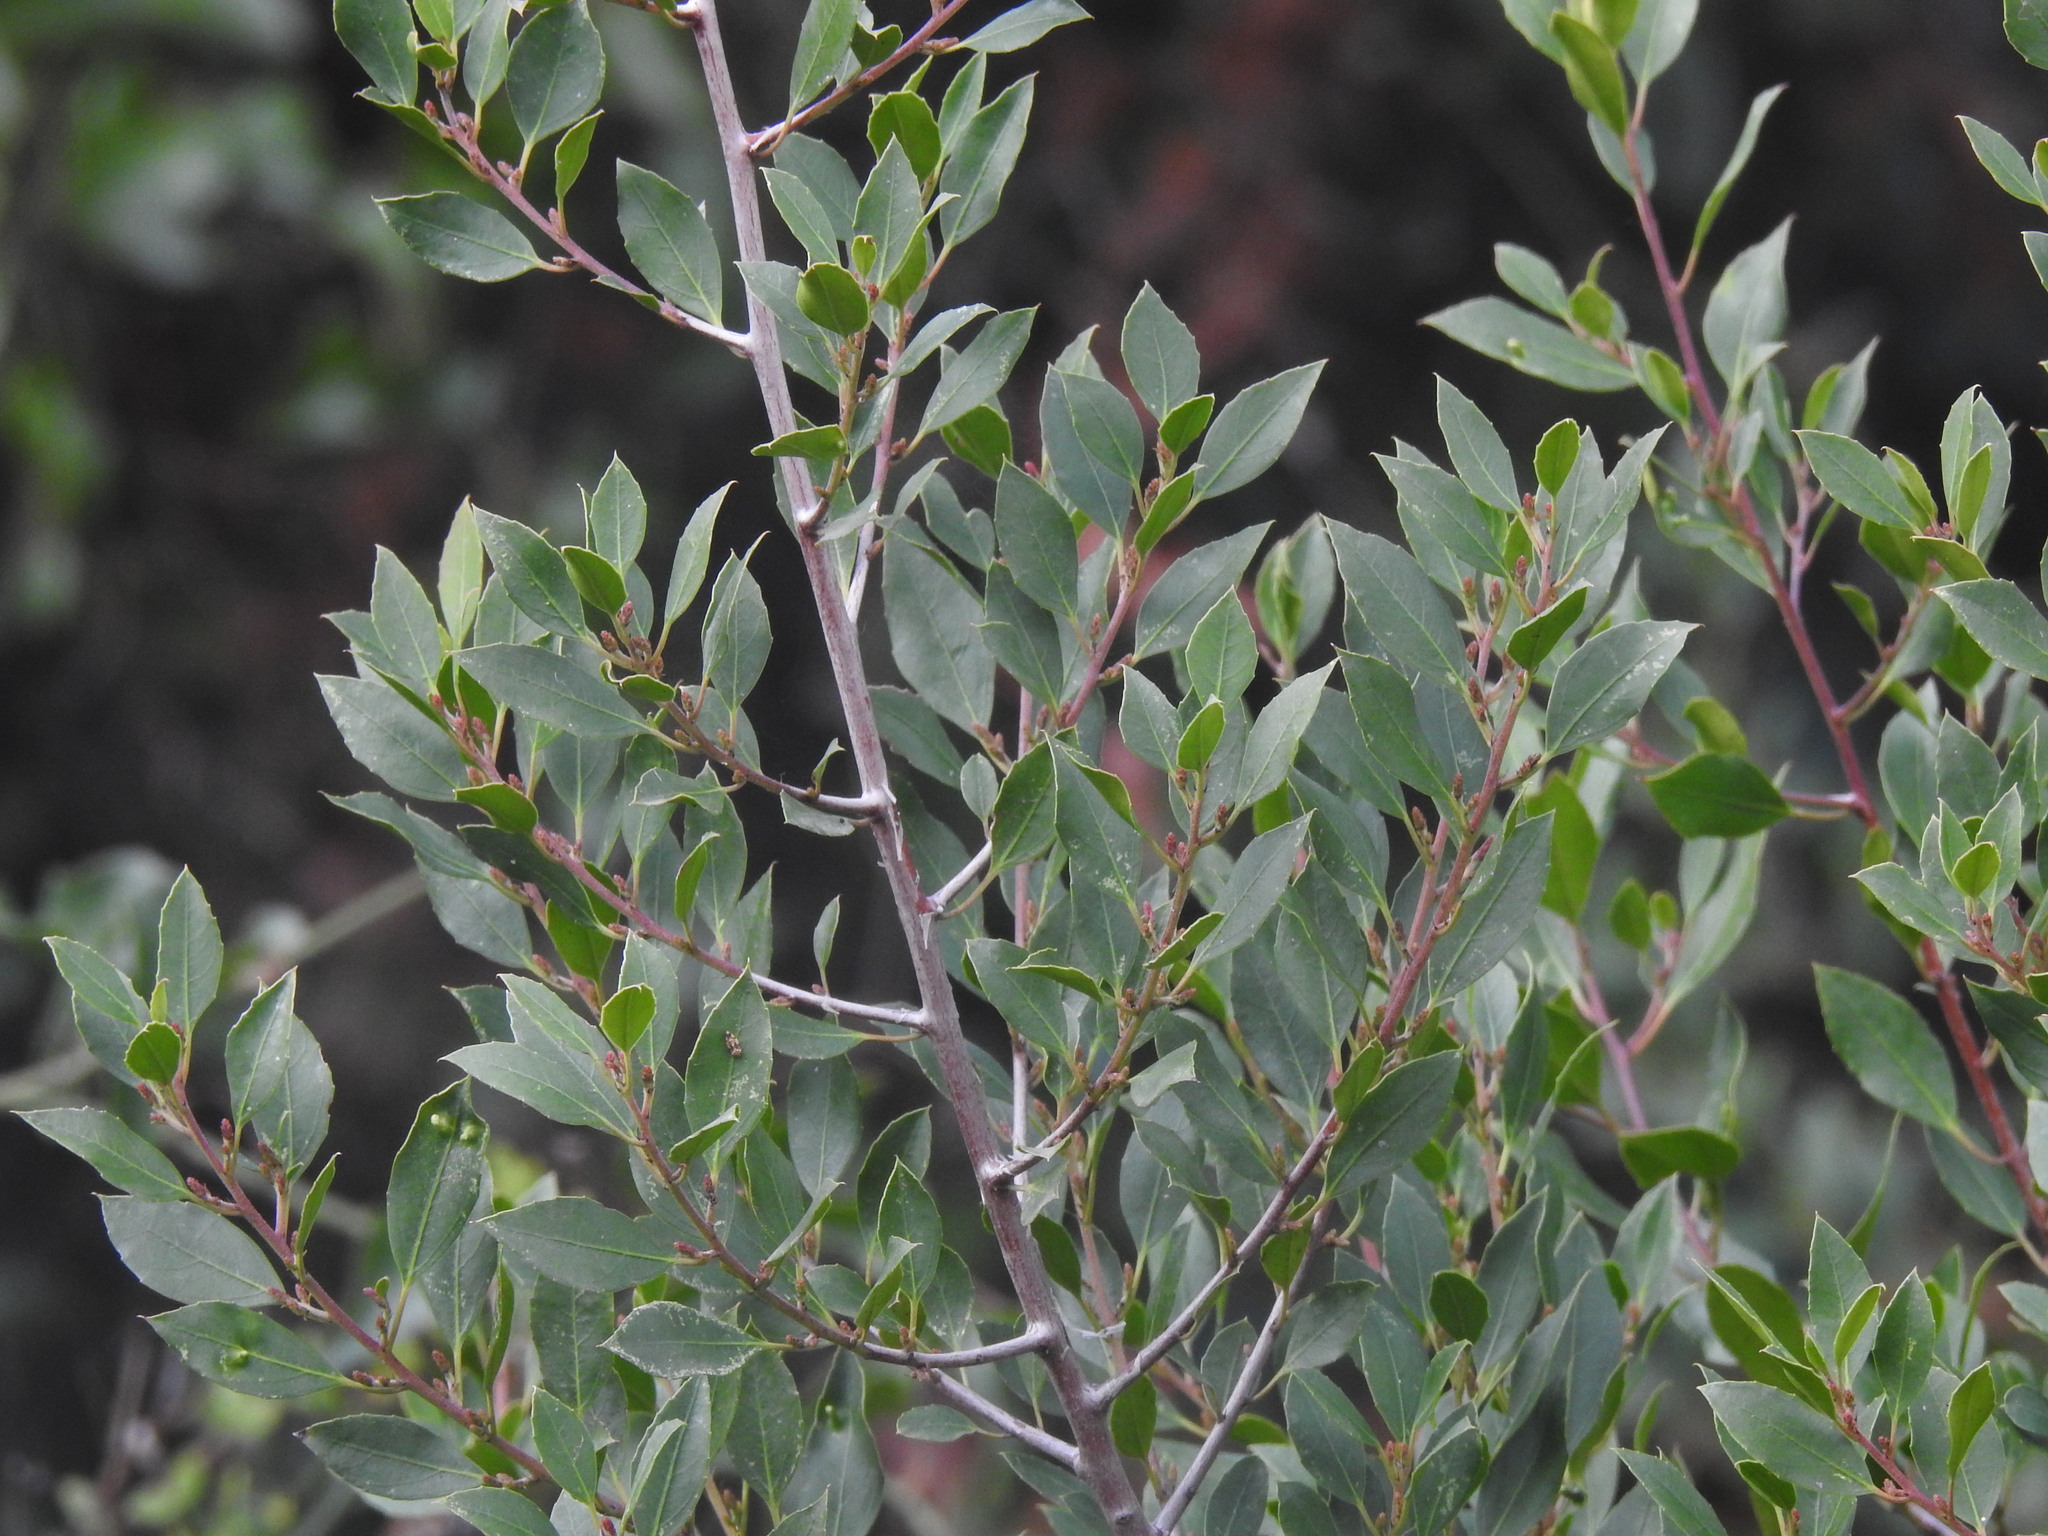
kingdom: Plantae
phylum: Tracheophyta
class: Magnoliopsida
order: Rosales
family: Rhamnaceae
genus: Rhamnus
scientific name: Rhamnus alaternus
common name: Mediterranean buckthorn
